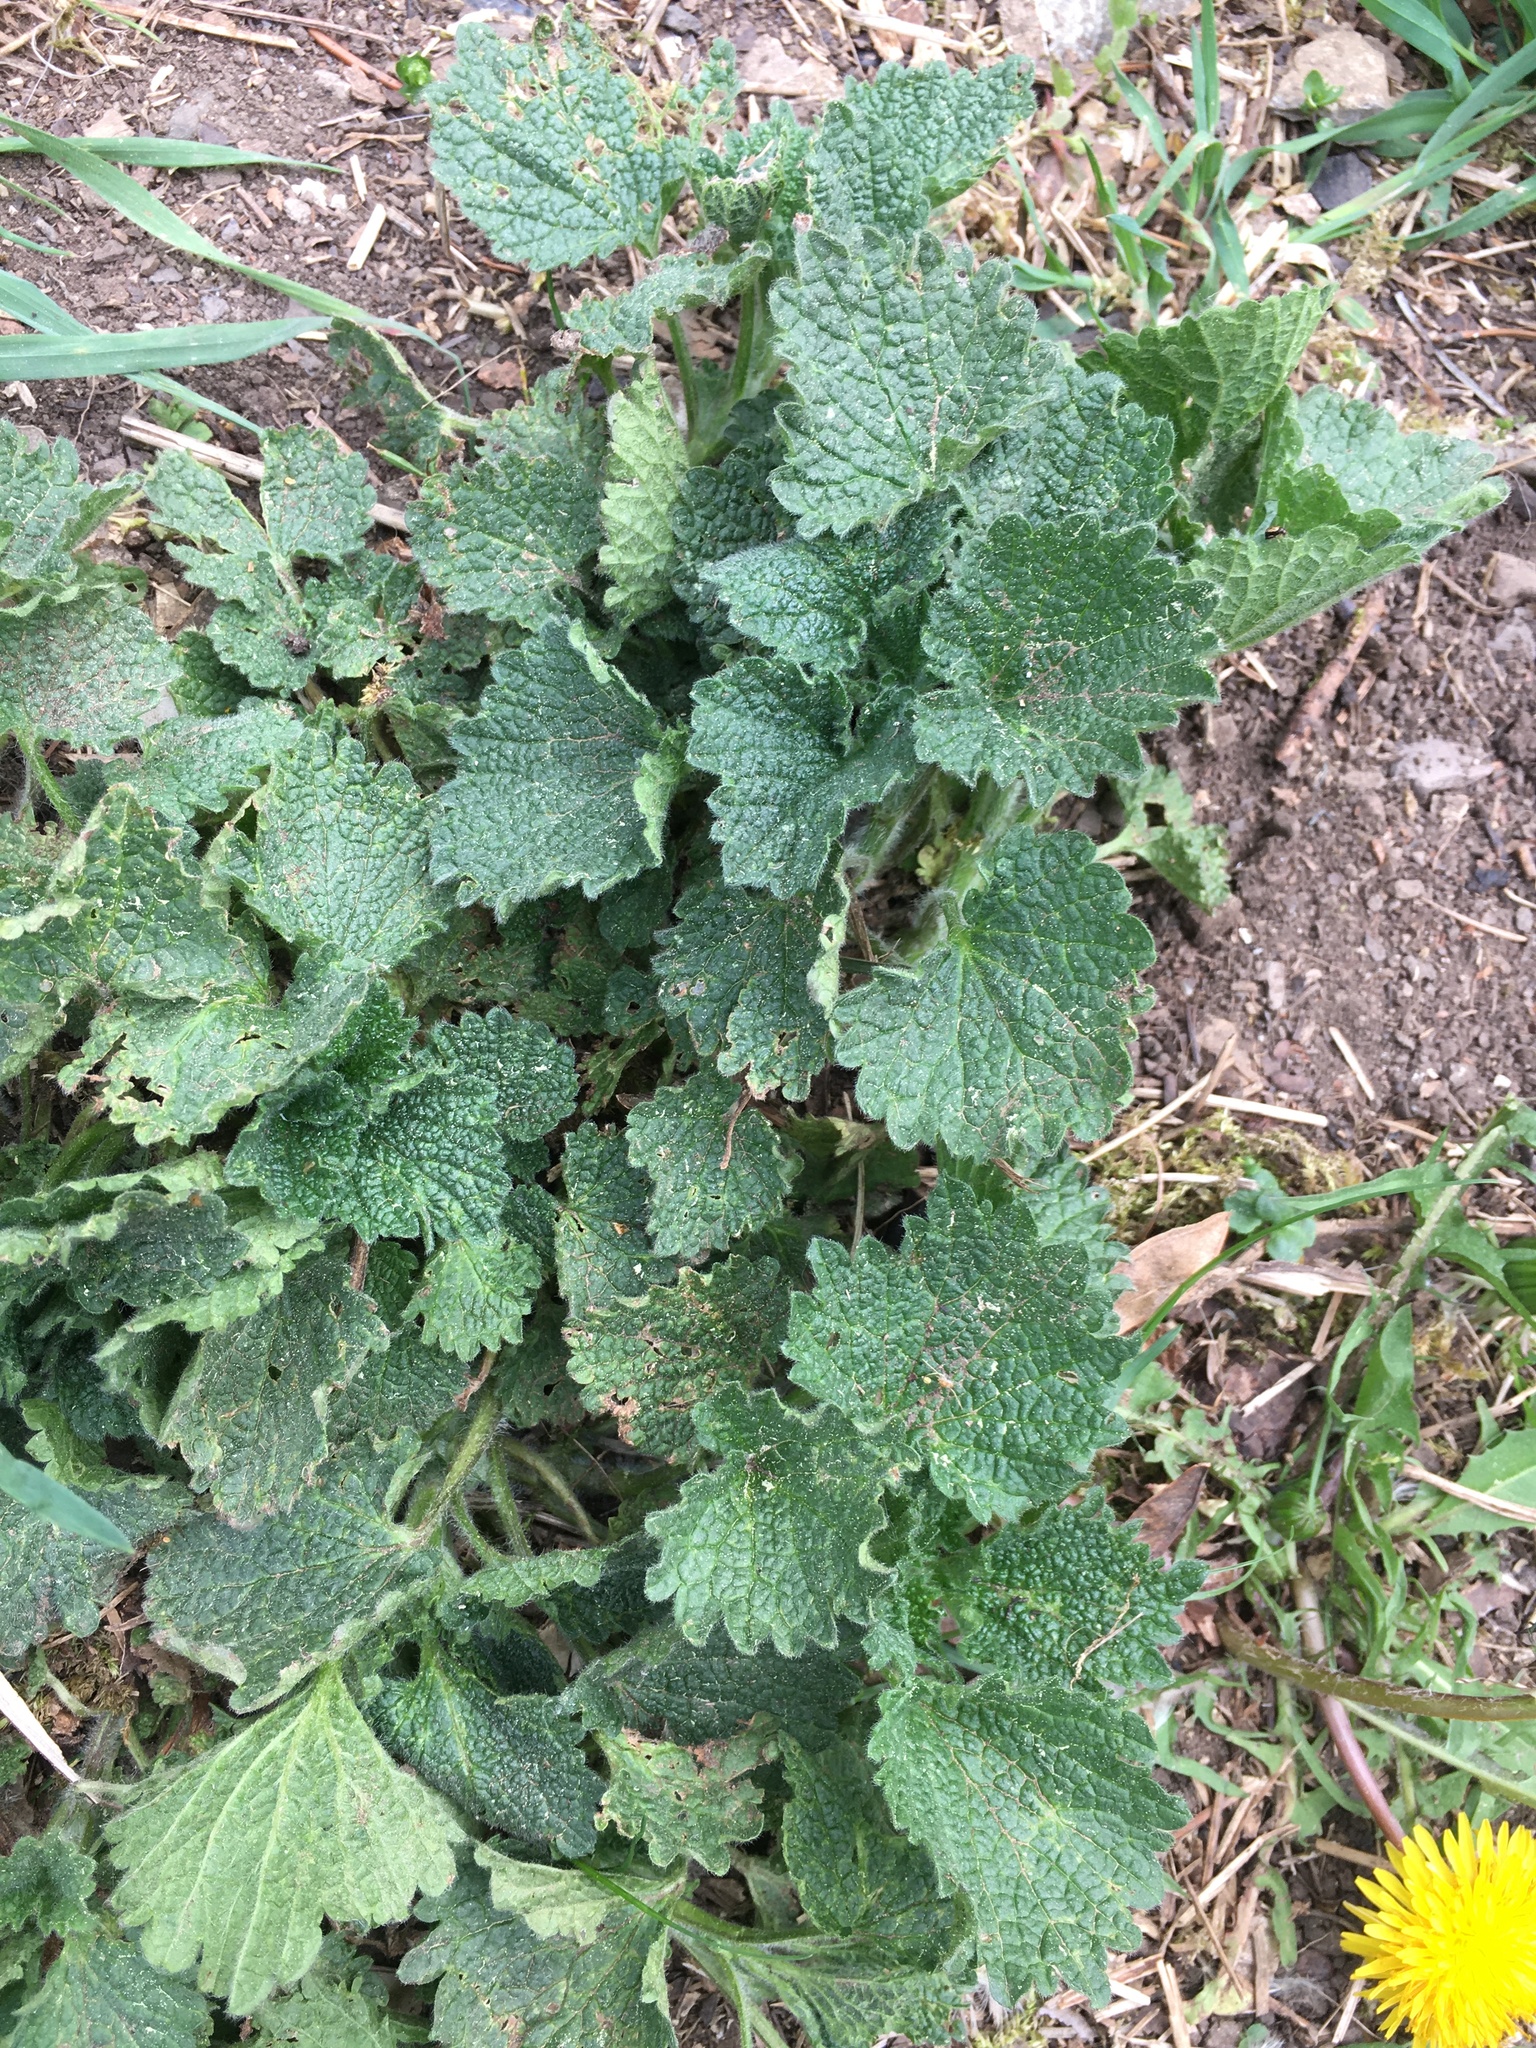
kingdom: Plantae
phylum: Tracheophyta
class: Magnoliopsida
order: Lamiales
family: Lamiaceae
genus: Ballota
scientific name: Ballota nigra
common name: Black horehound
